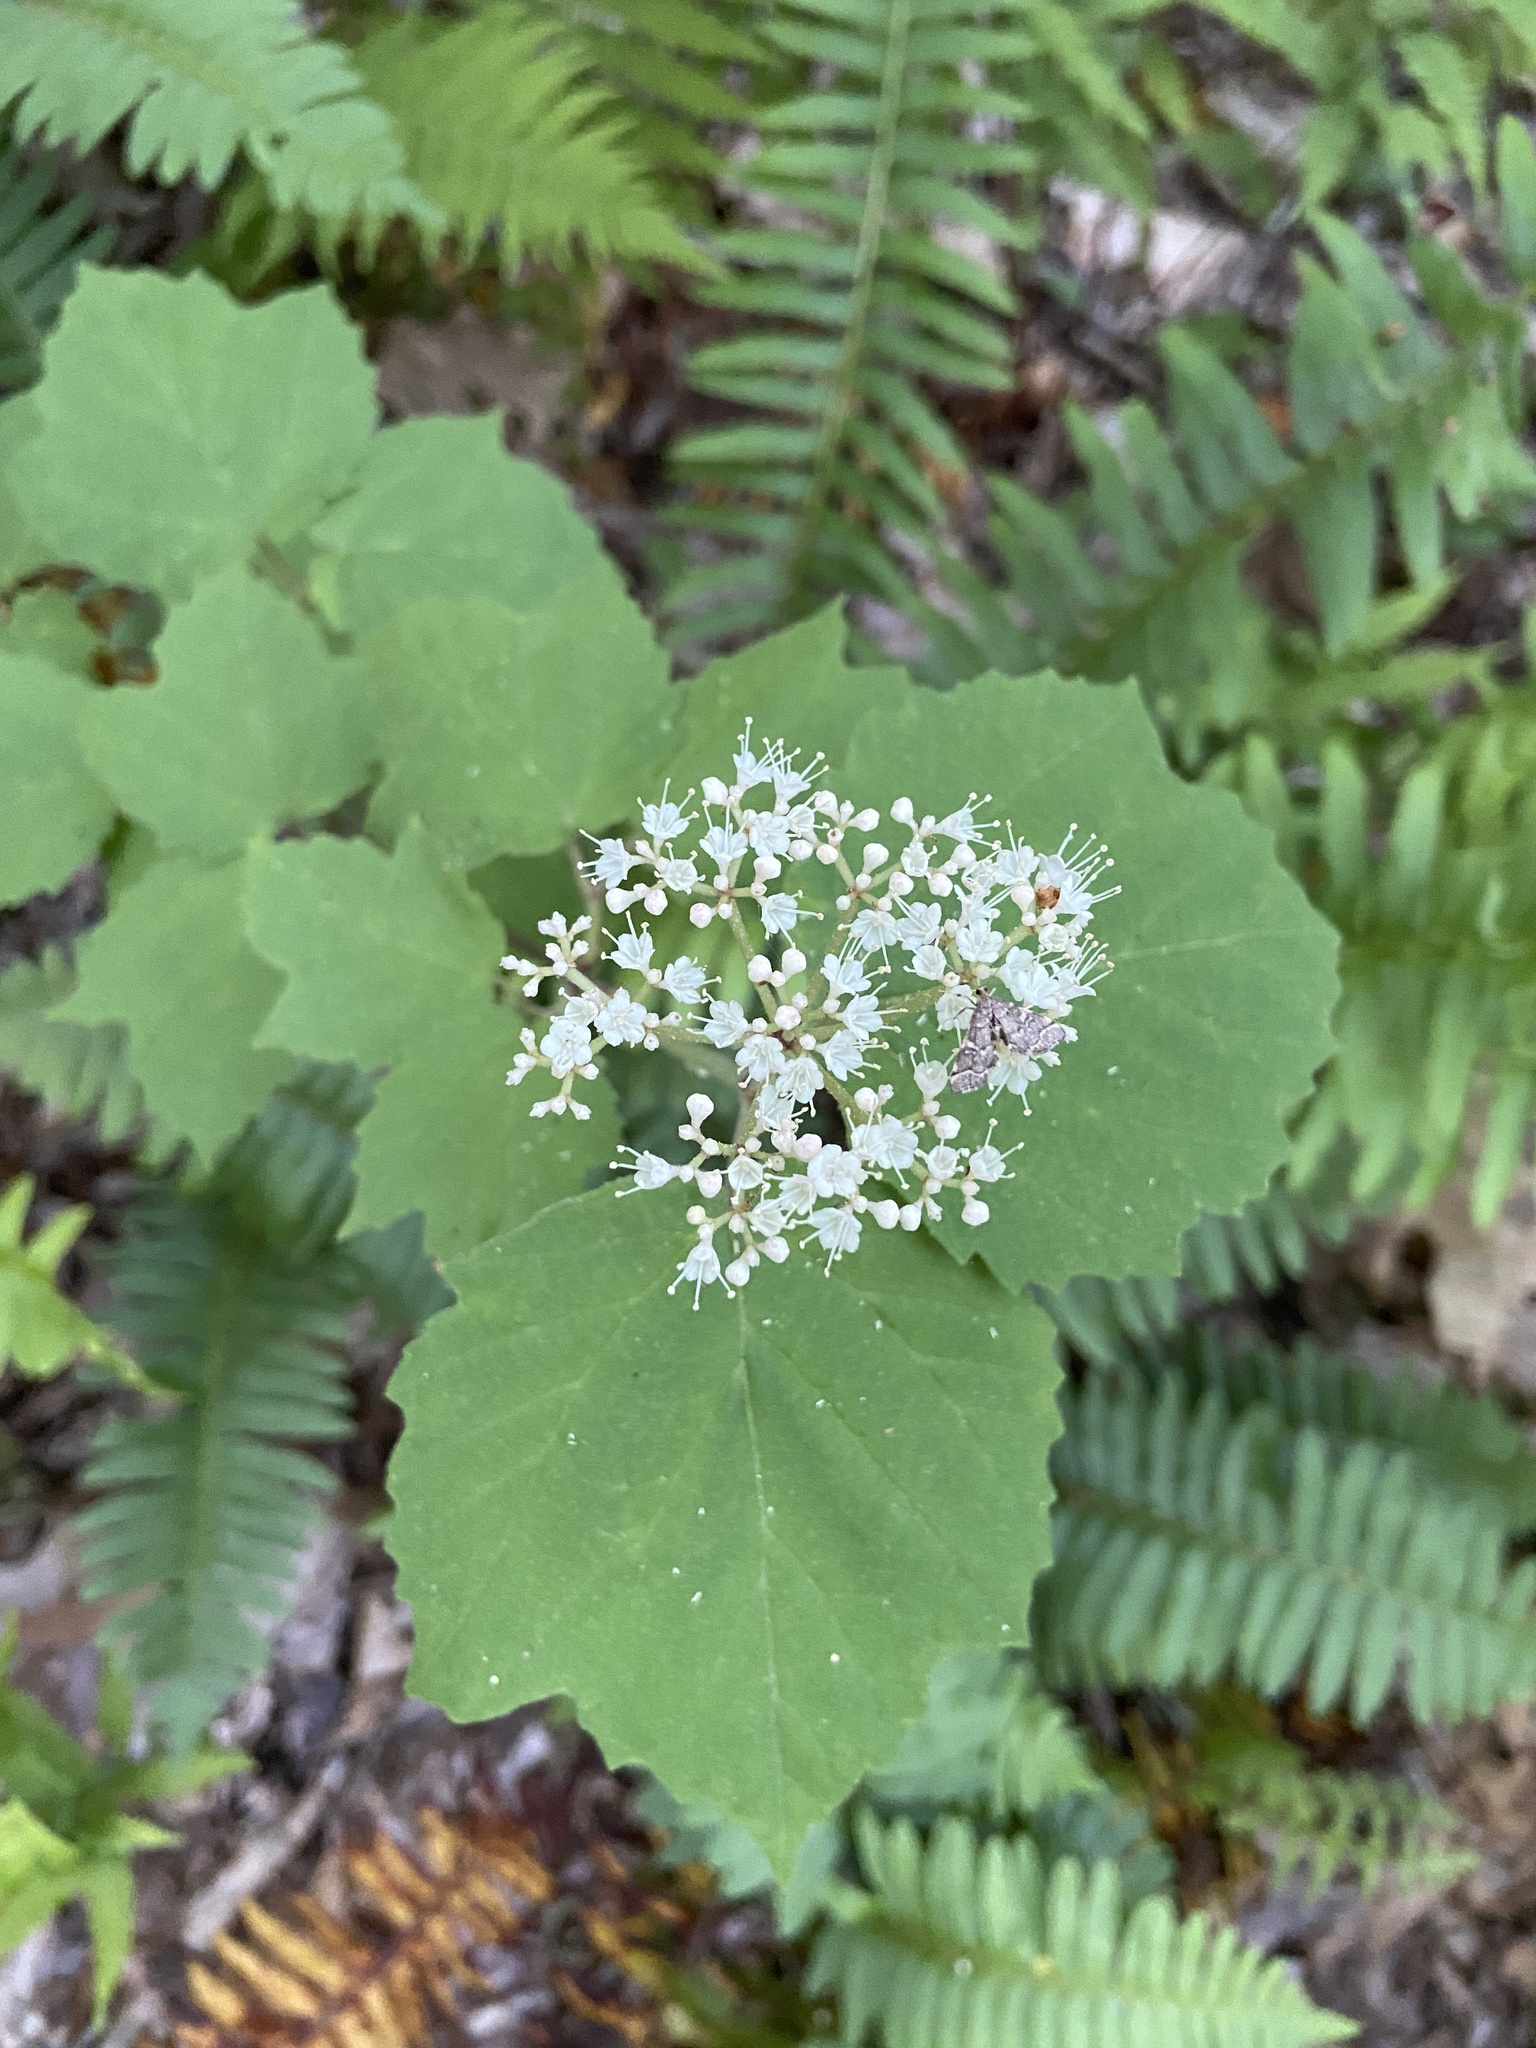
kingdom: Plantae
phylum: Tracheophyta
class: Magnoliopsida
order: Dipsacales
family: Viburnaceae
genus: Viburnum
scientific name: Viburnum acerifolium
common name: Dockmackie
